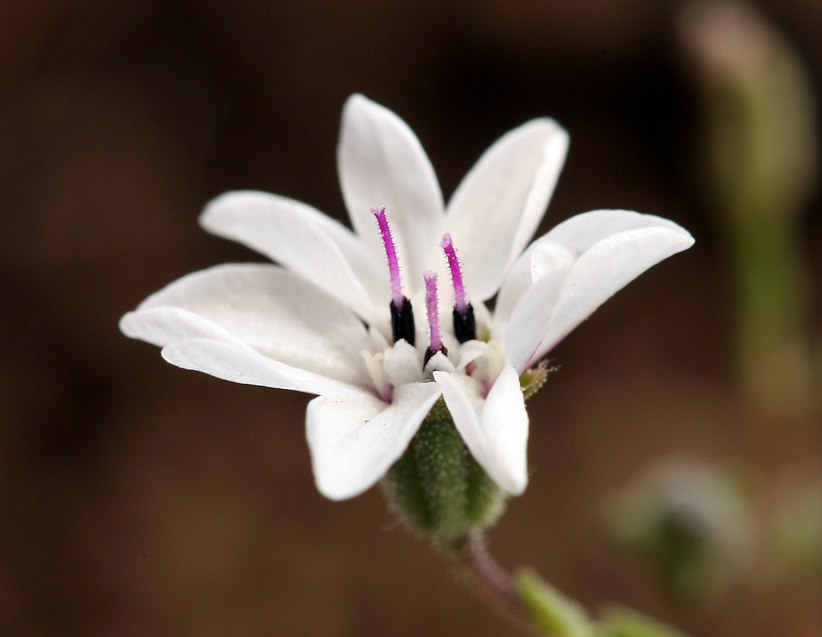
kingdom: Plantae
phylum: Tracheophyta
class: Magnoliopsida
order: Asterales
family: Asteraceae
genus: Blepharipappus
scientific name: Blepharipappus scaber
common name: Rough blepharipappus
